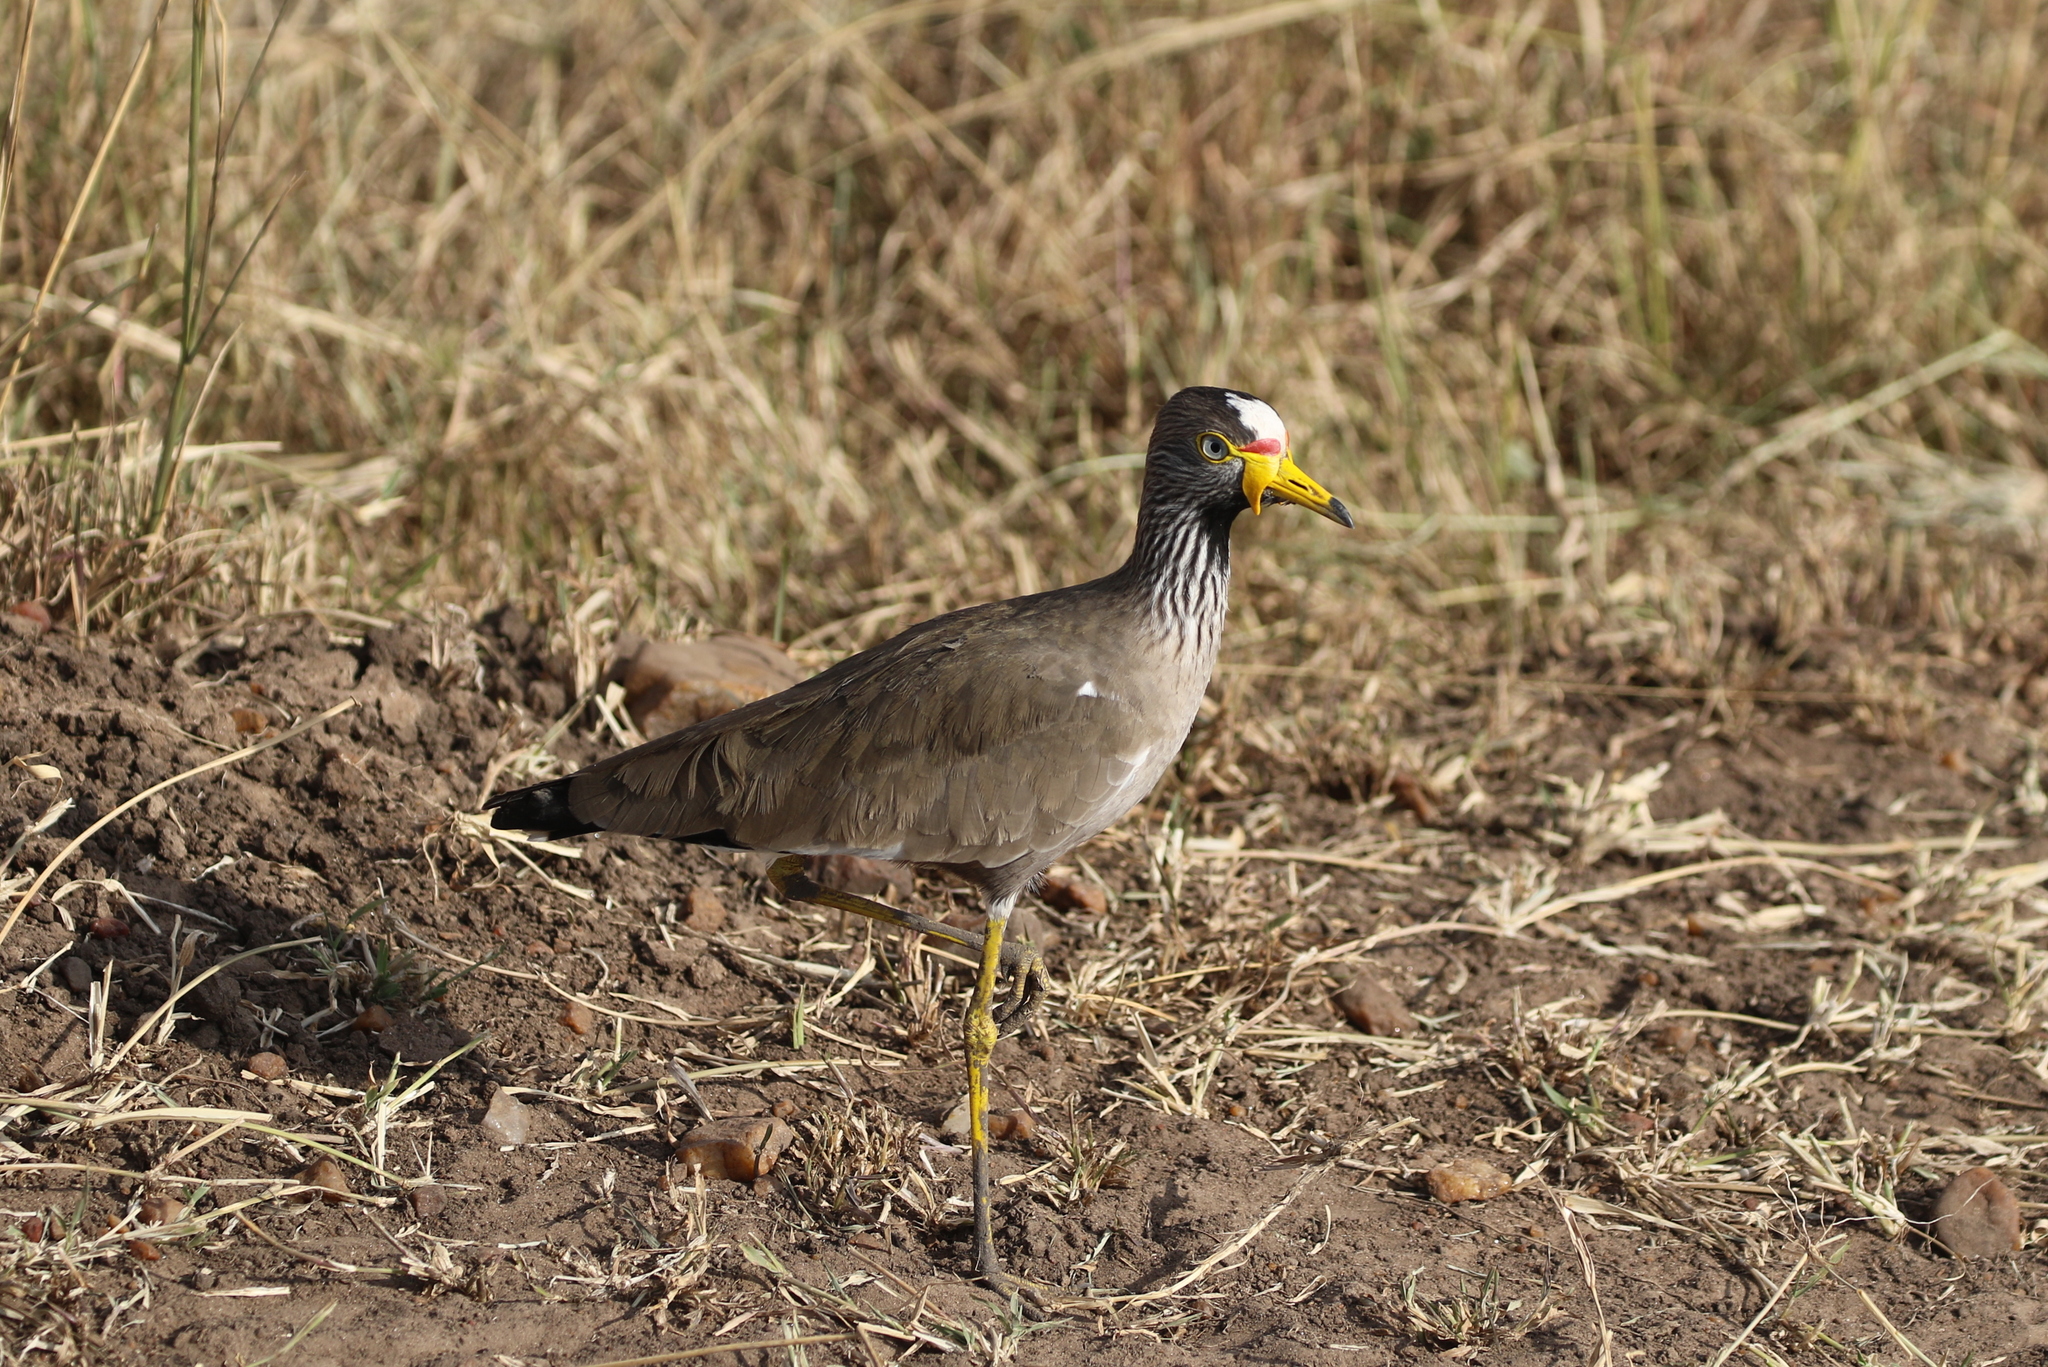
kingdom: Animalia
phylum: Chordata
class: Aves
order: Charadriiformes
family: Charadriidae
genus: Vanellus
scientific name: Vanellus senegallus
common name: African wattled lapwing
